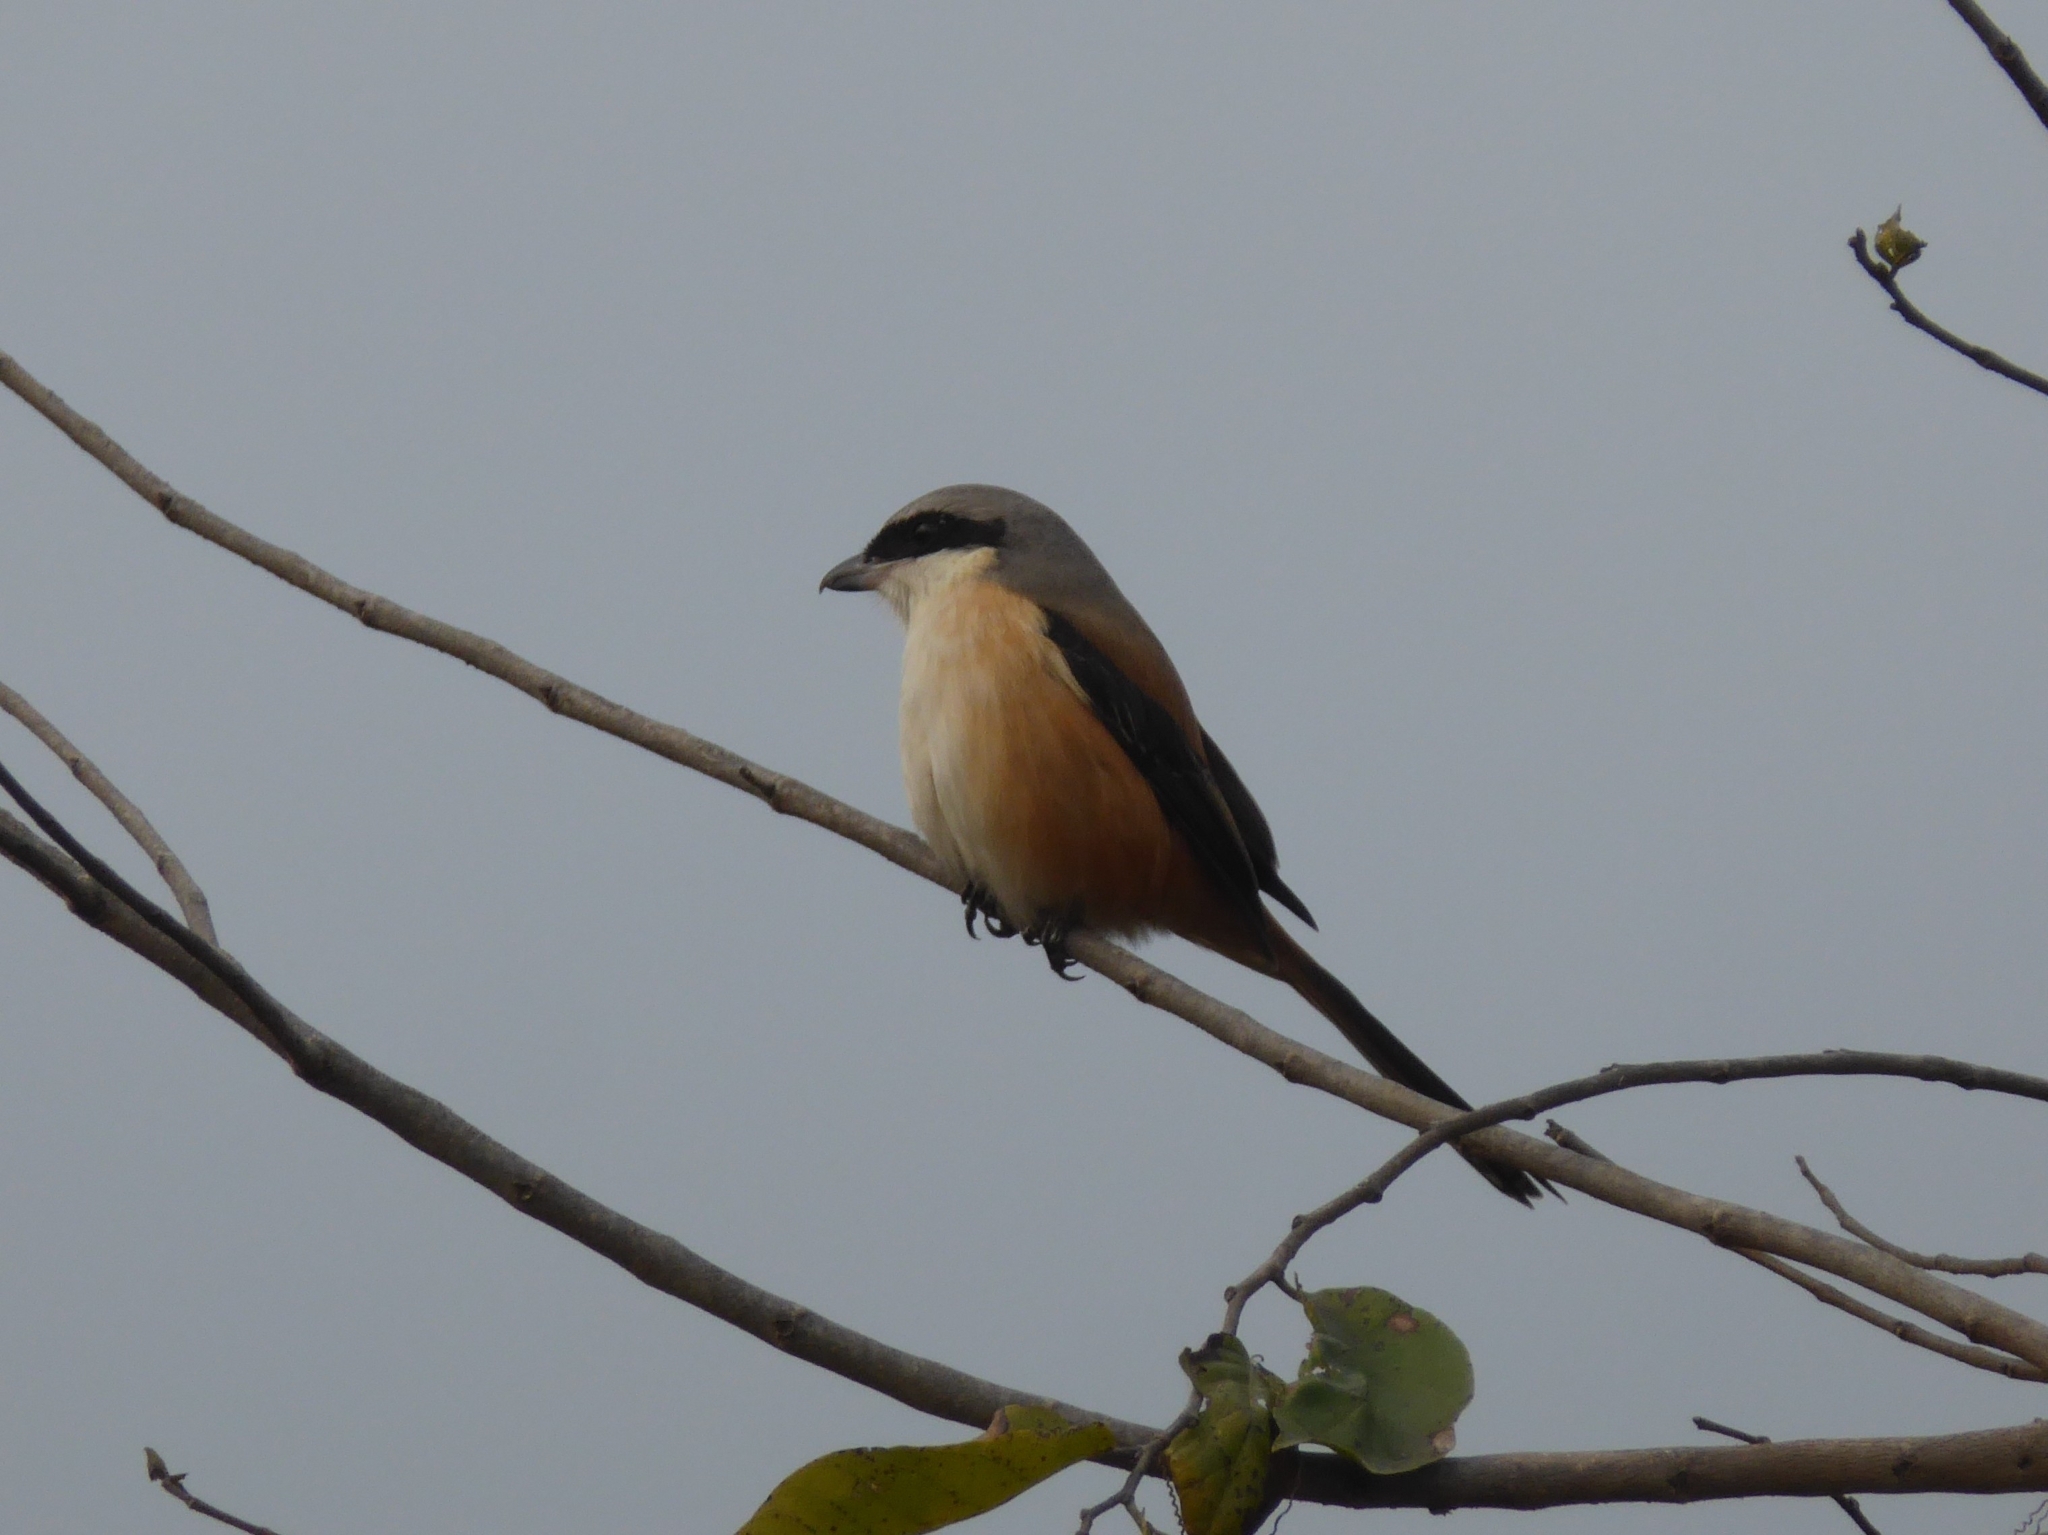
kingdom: Animalia
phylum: Chordata
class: Aves
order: Passeriformes
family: Laniidae
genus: Lanius
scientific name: Lanius schach
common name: Long-tailed shrike
